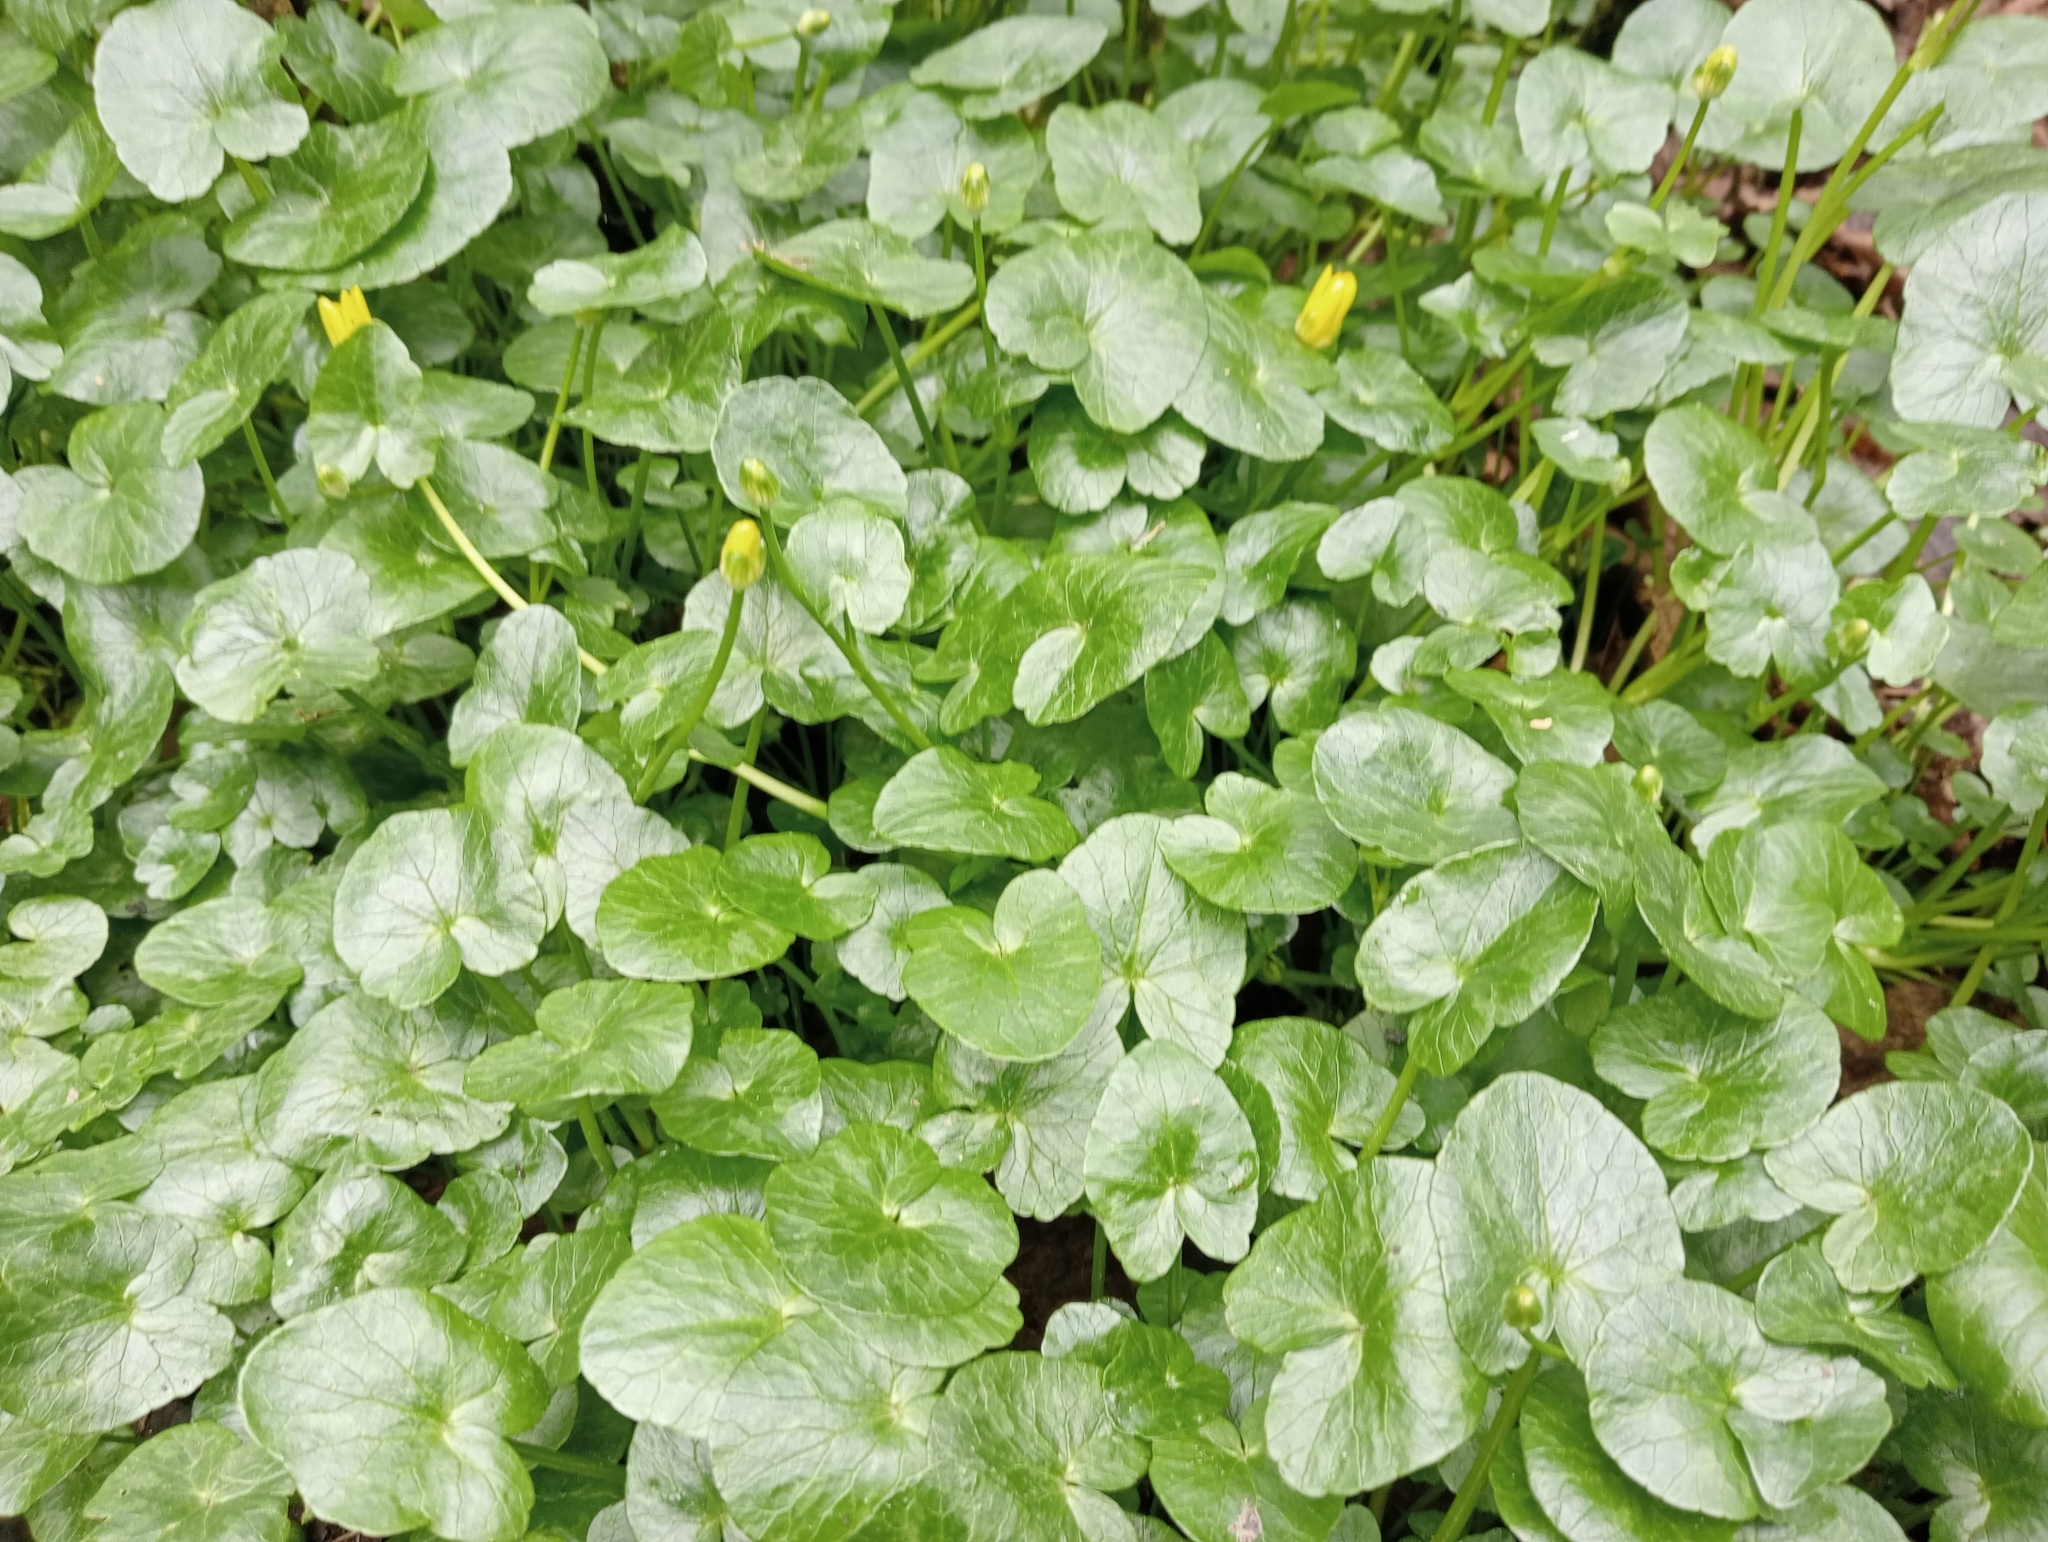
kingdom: Plantae
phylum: Tracheophyta
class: Magnoliopsida
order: Ranunculales
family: Ranunculaceae
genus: Ficaria
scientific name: Ficaria verna
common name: Lesser celandine
